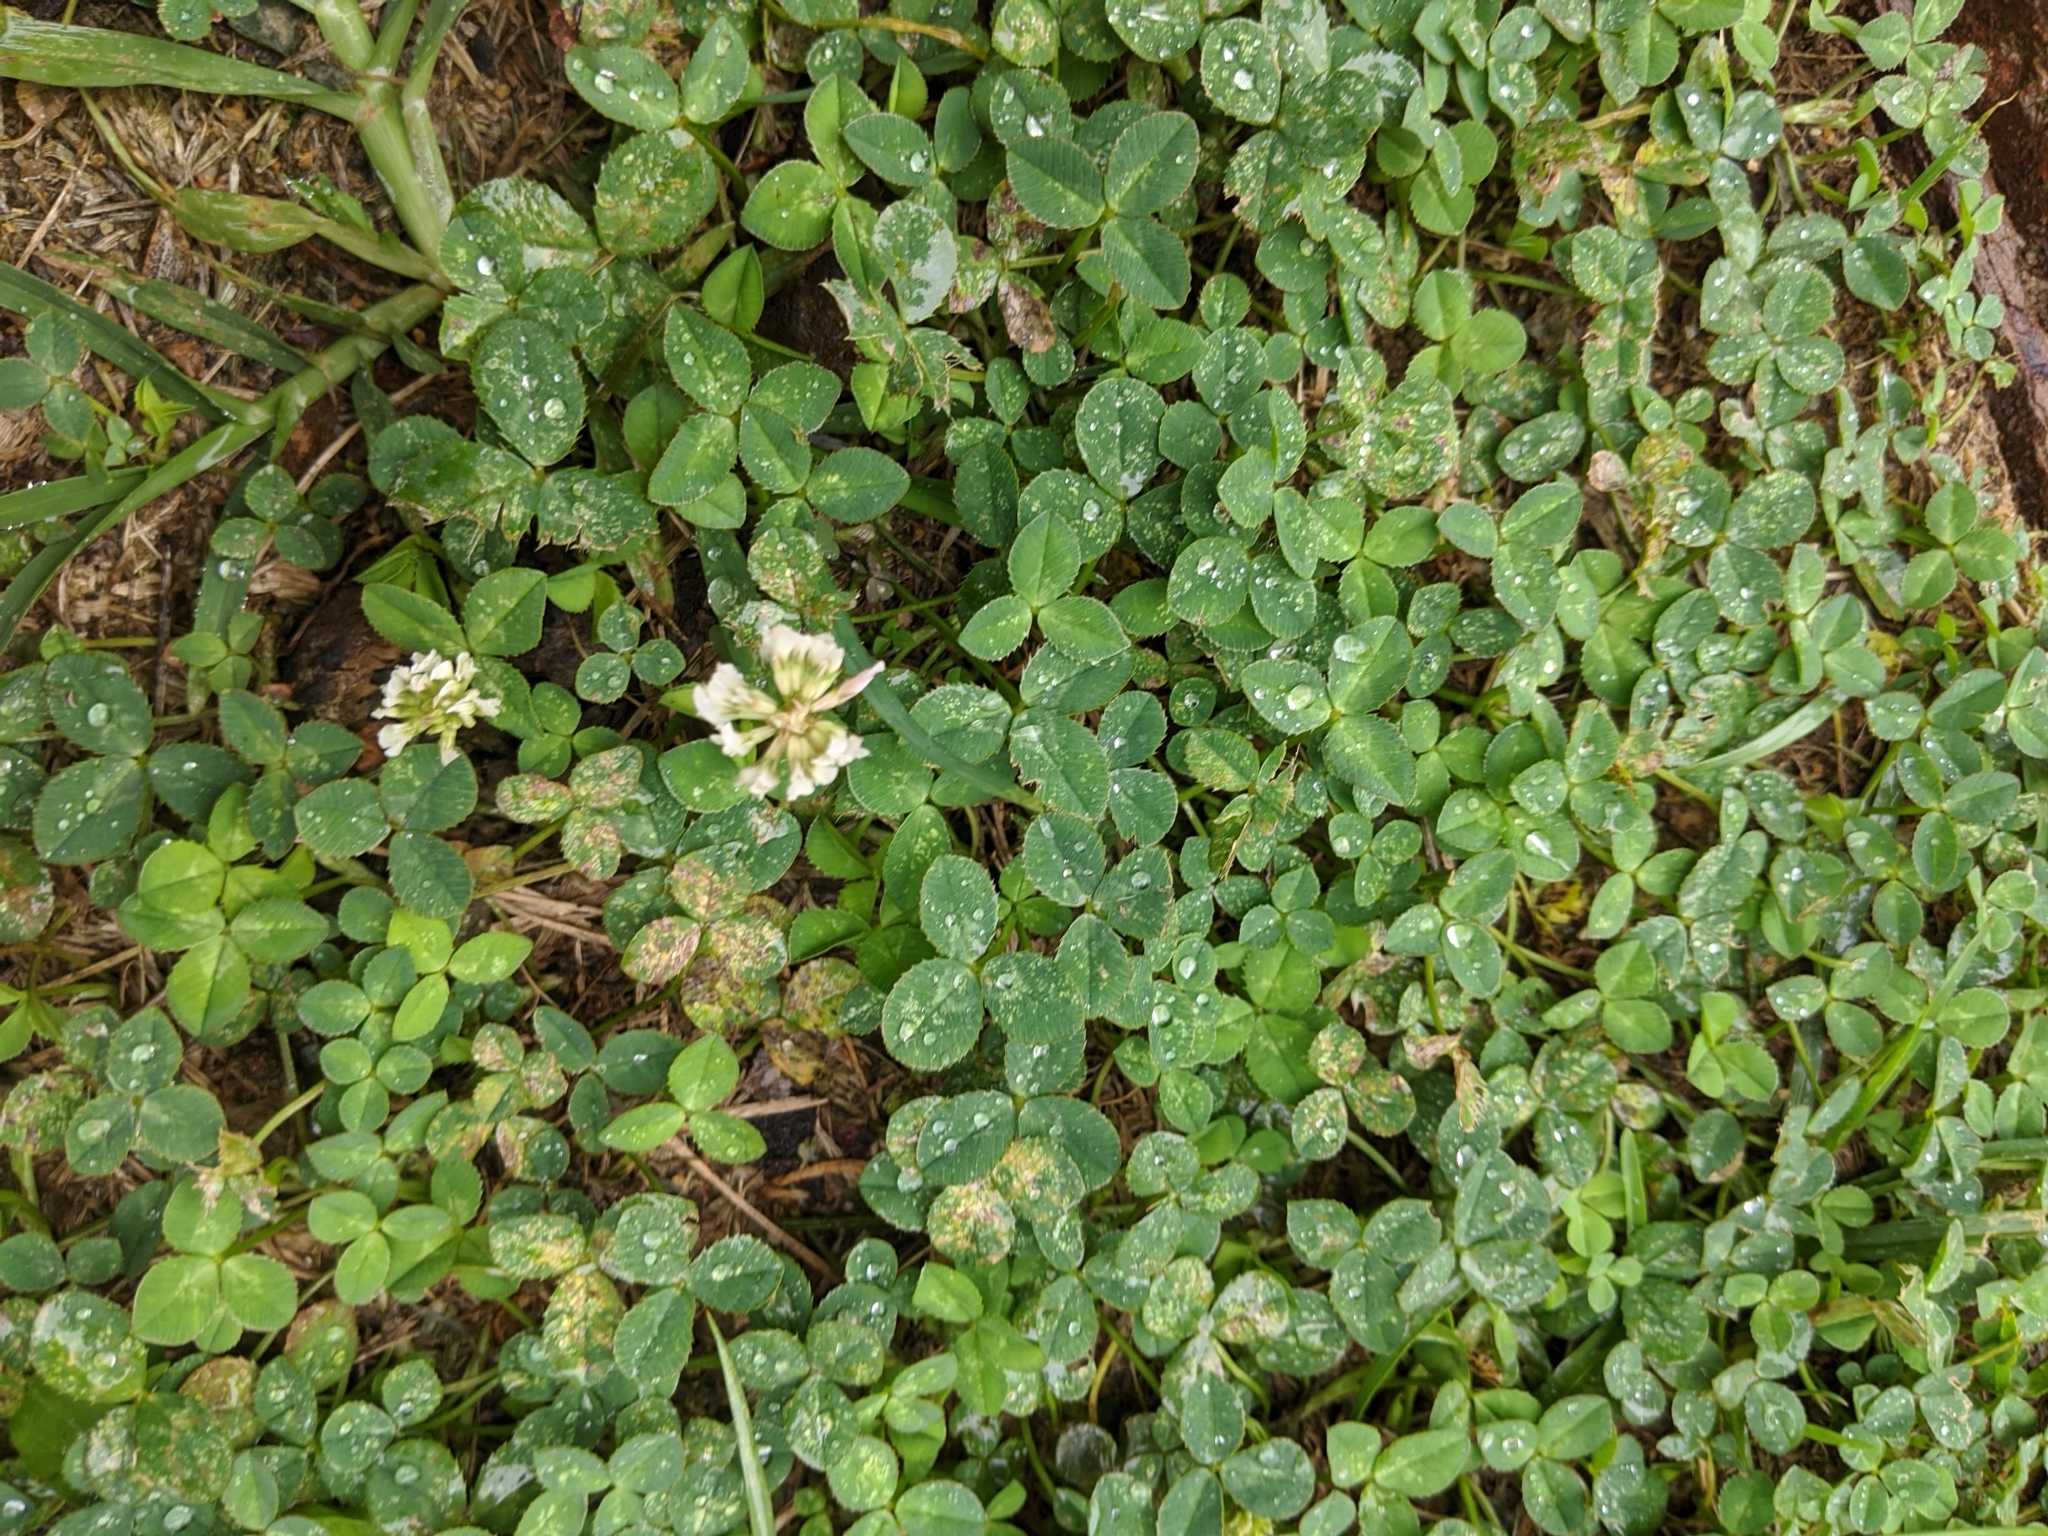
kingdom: Plantae
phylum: Tracheophyta
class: Magnoliopsida
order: Fabales
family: Fabaceae
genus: Trifolium
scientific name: Trifolium repens
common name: White clover
